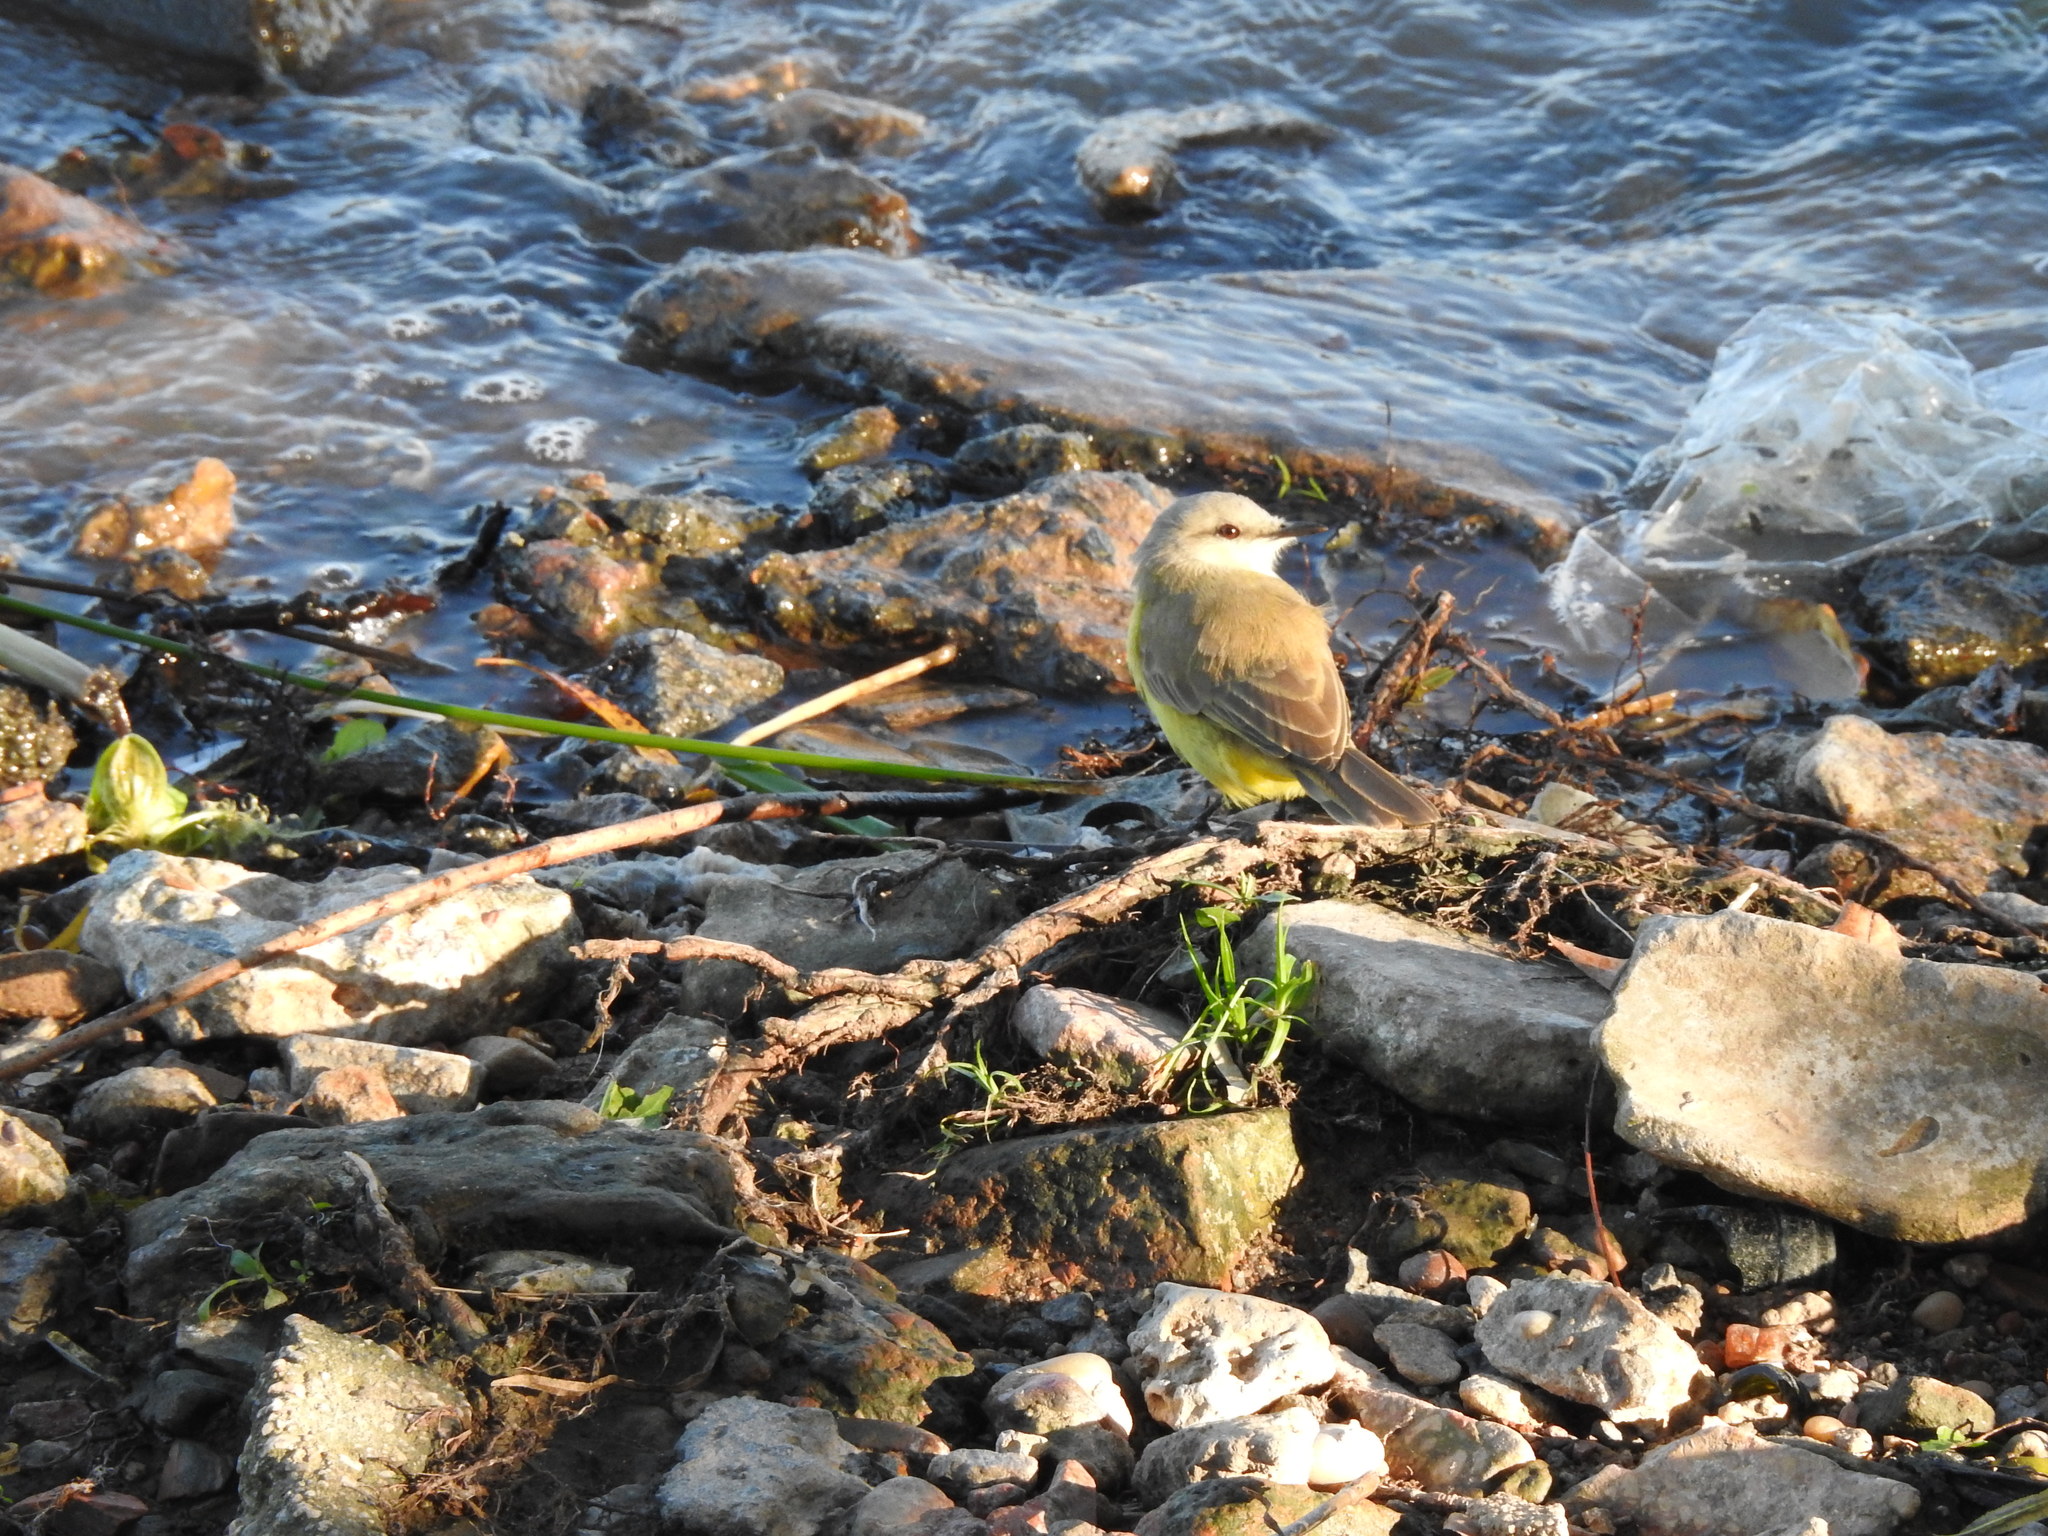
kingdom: Animalia
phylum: Chordata
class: Aves
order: Passeriformes
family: Tyrannidae
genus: Machetornis
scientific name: Machetornis rixosa
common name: Cattle tyrant
